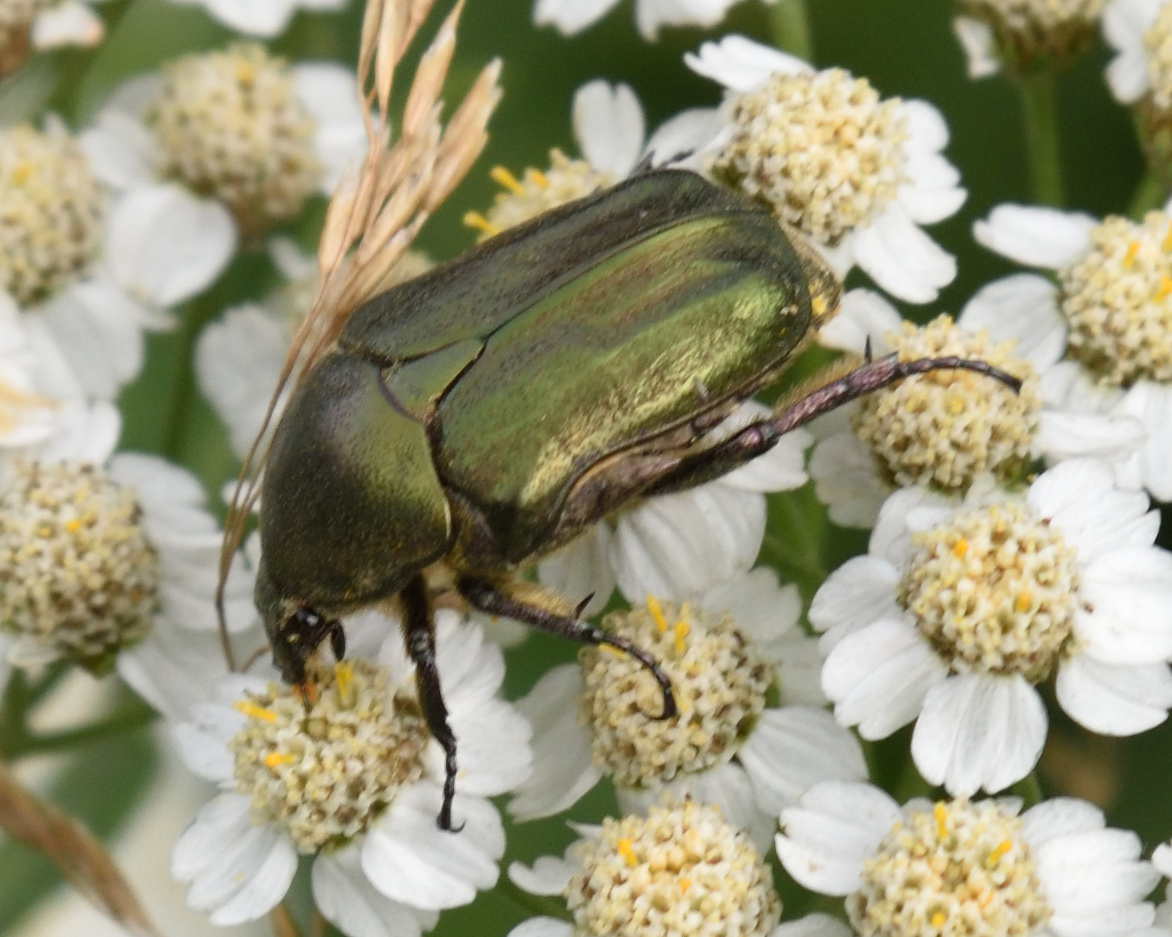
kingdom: Animalia
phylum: Arthropoda
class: Insecta
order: Coleoptera
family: Scarabaeidae
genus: Protaetia
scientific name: Protaetia cuprea
